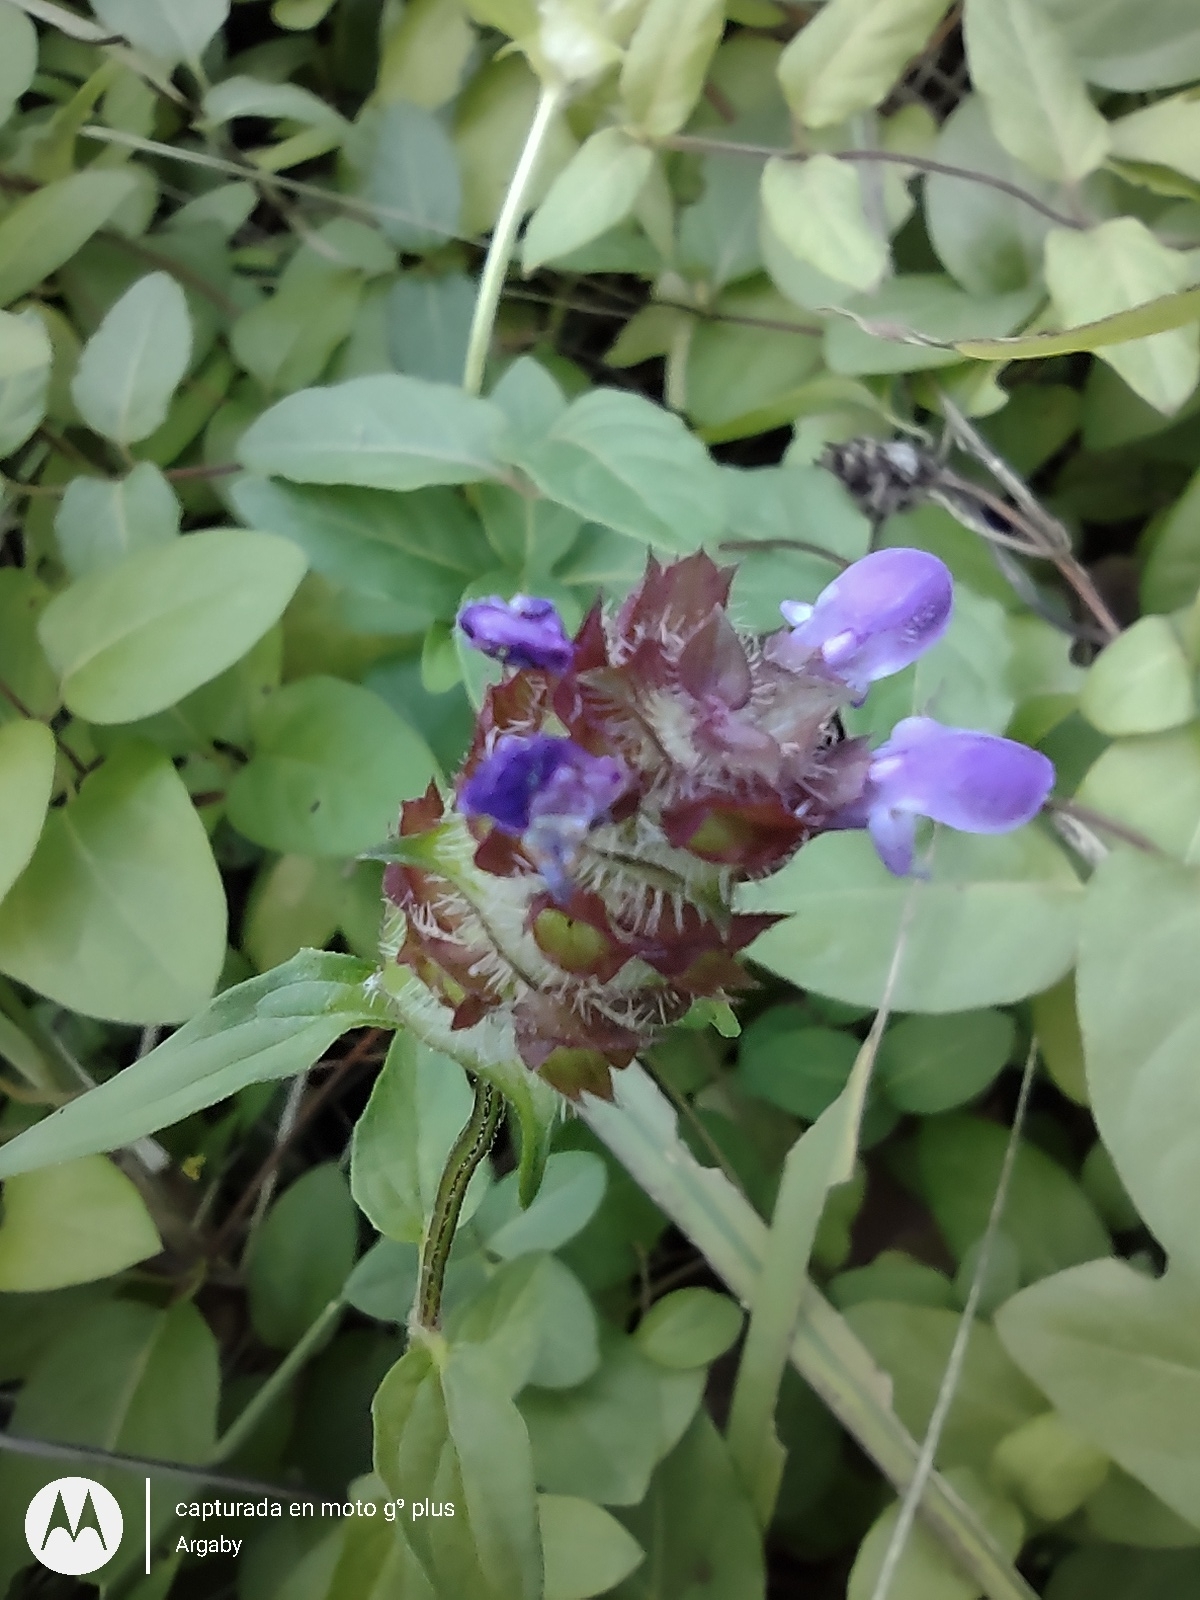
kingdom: Plantae
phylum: Tracheophyta
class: Magnoliopsida
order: Lamiales
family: Lamiaceae
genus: Prunella
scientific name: Prunella vulgaris
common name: Heal-all
